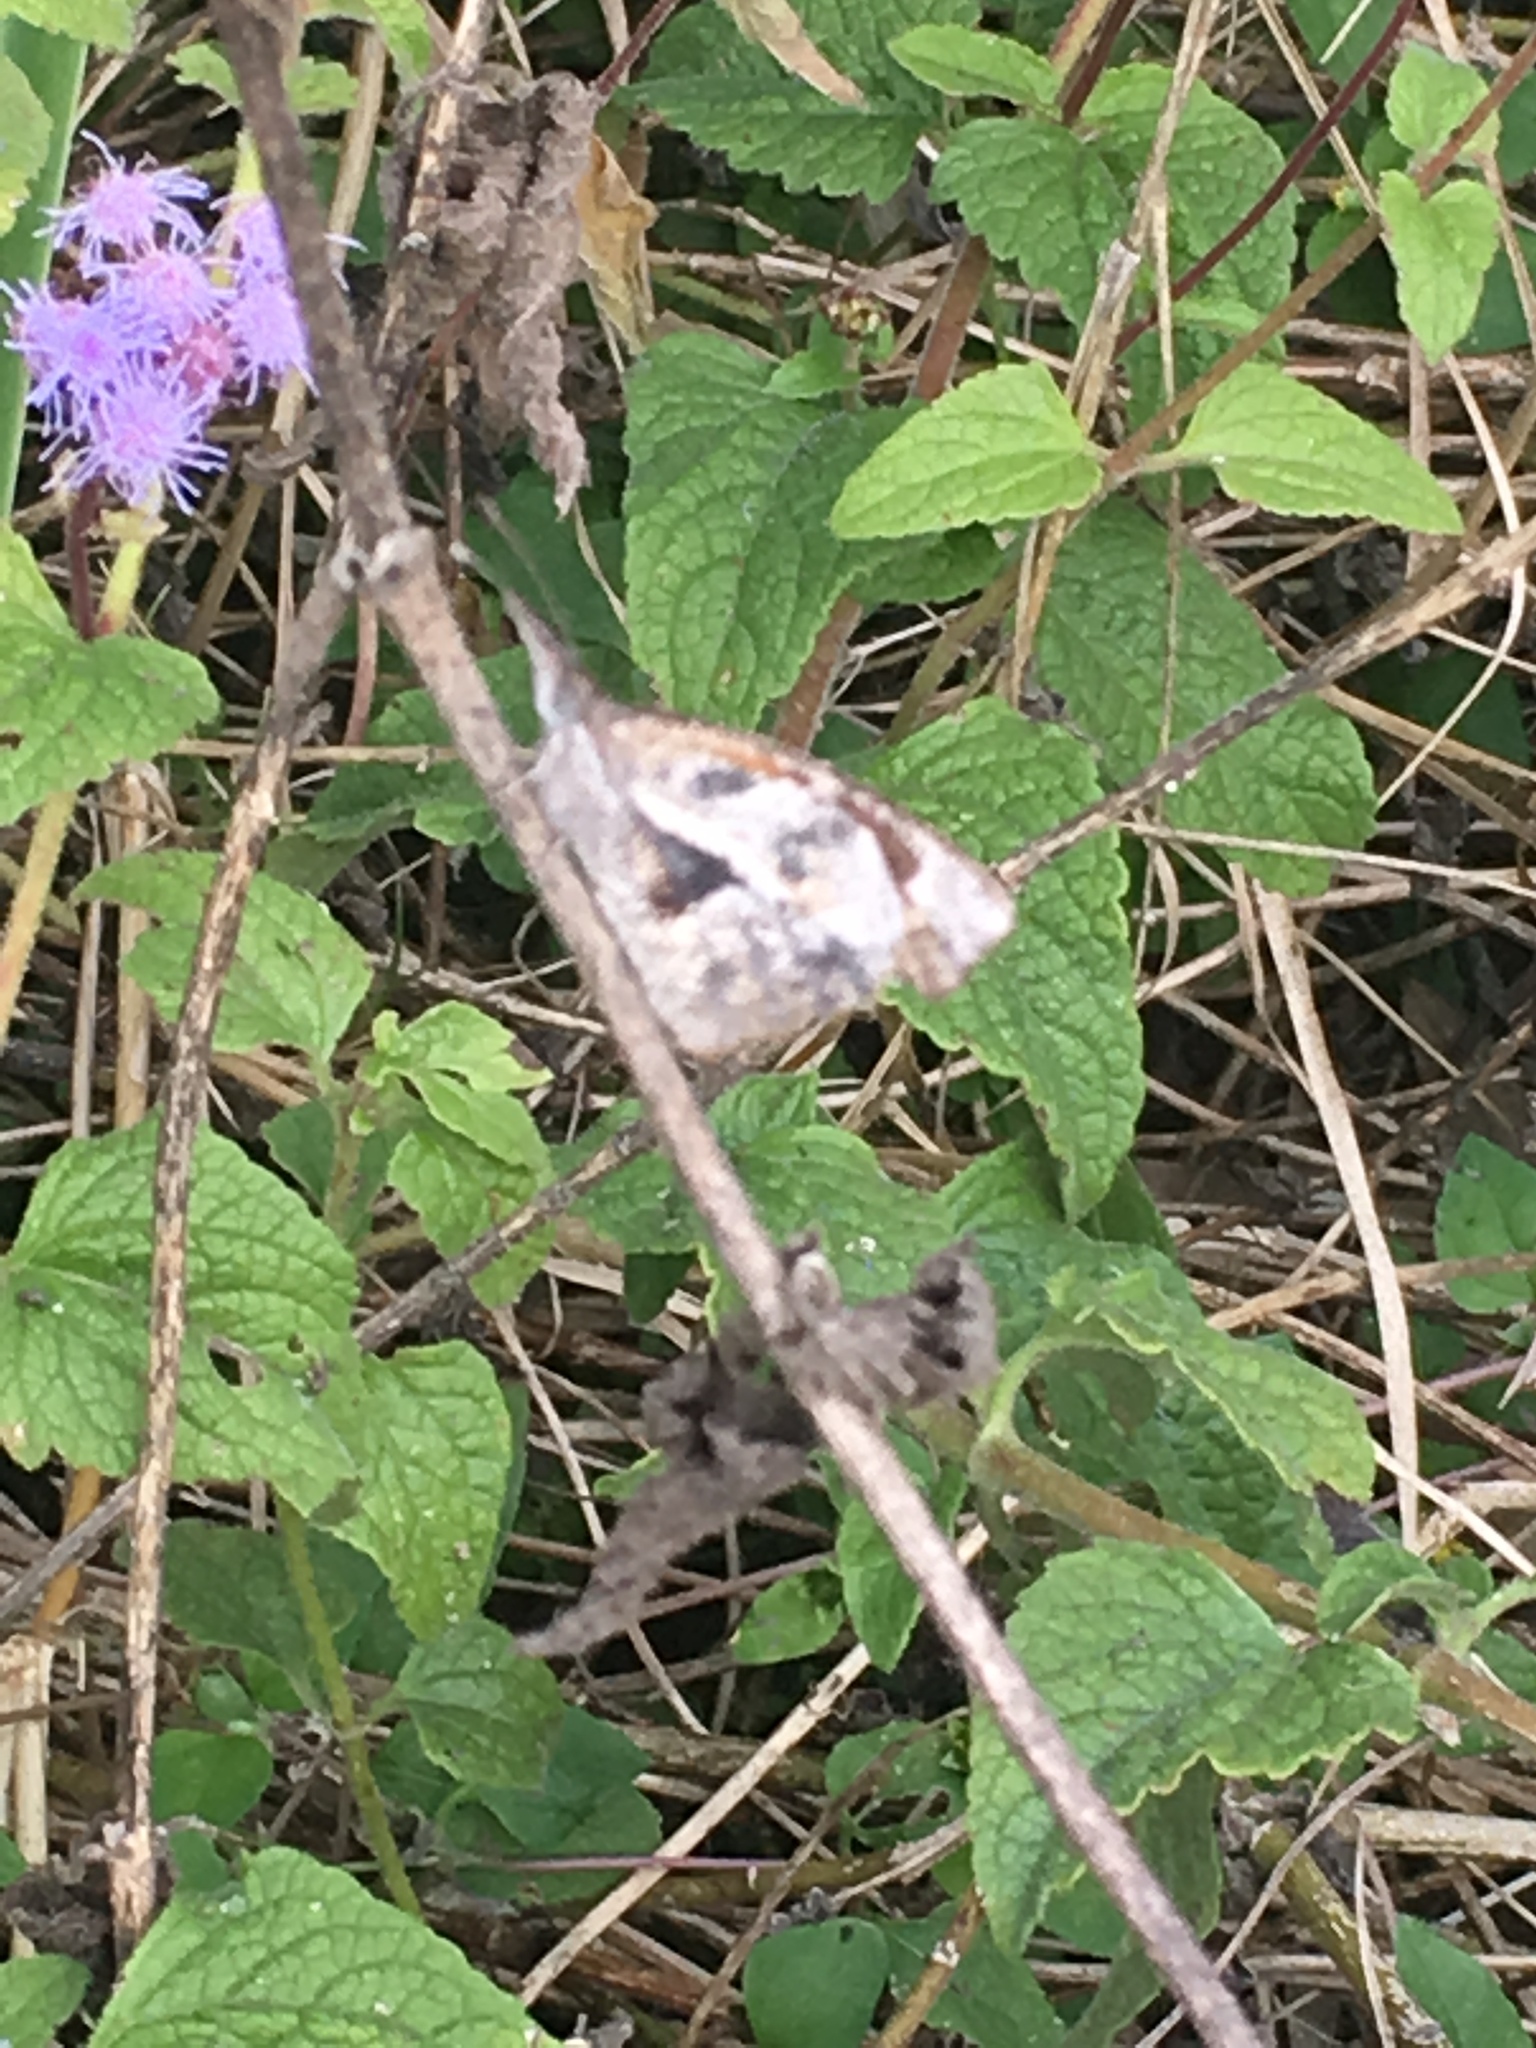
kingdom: Animalia
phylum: Arthropoda
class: Insecta
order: Lepidoptera
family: Nymphalidae
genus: Libytheana
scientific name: Libytheana carinenta
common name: American snout
